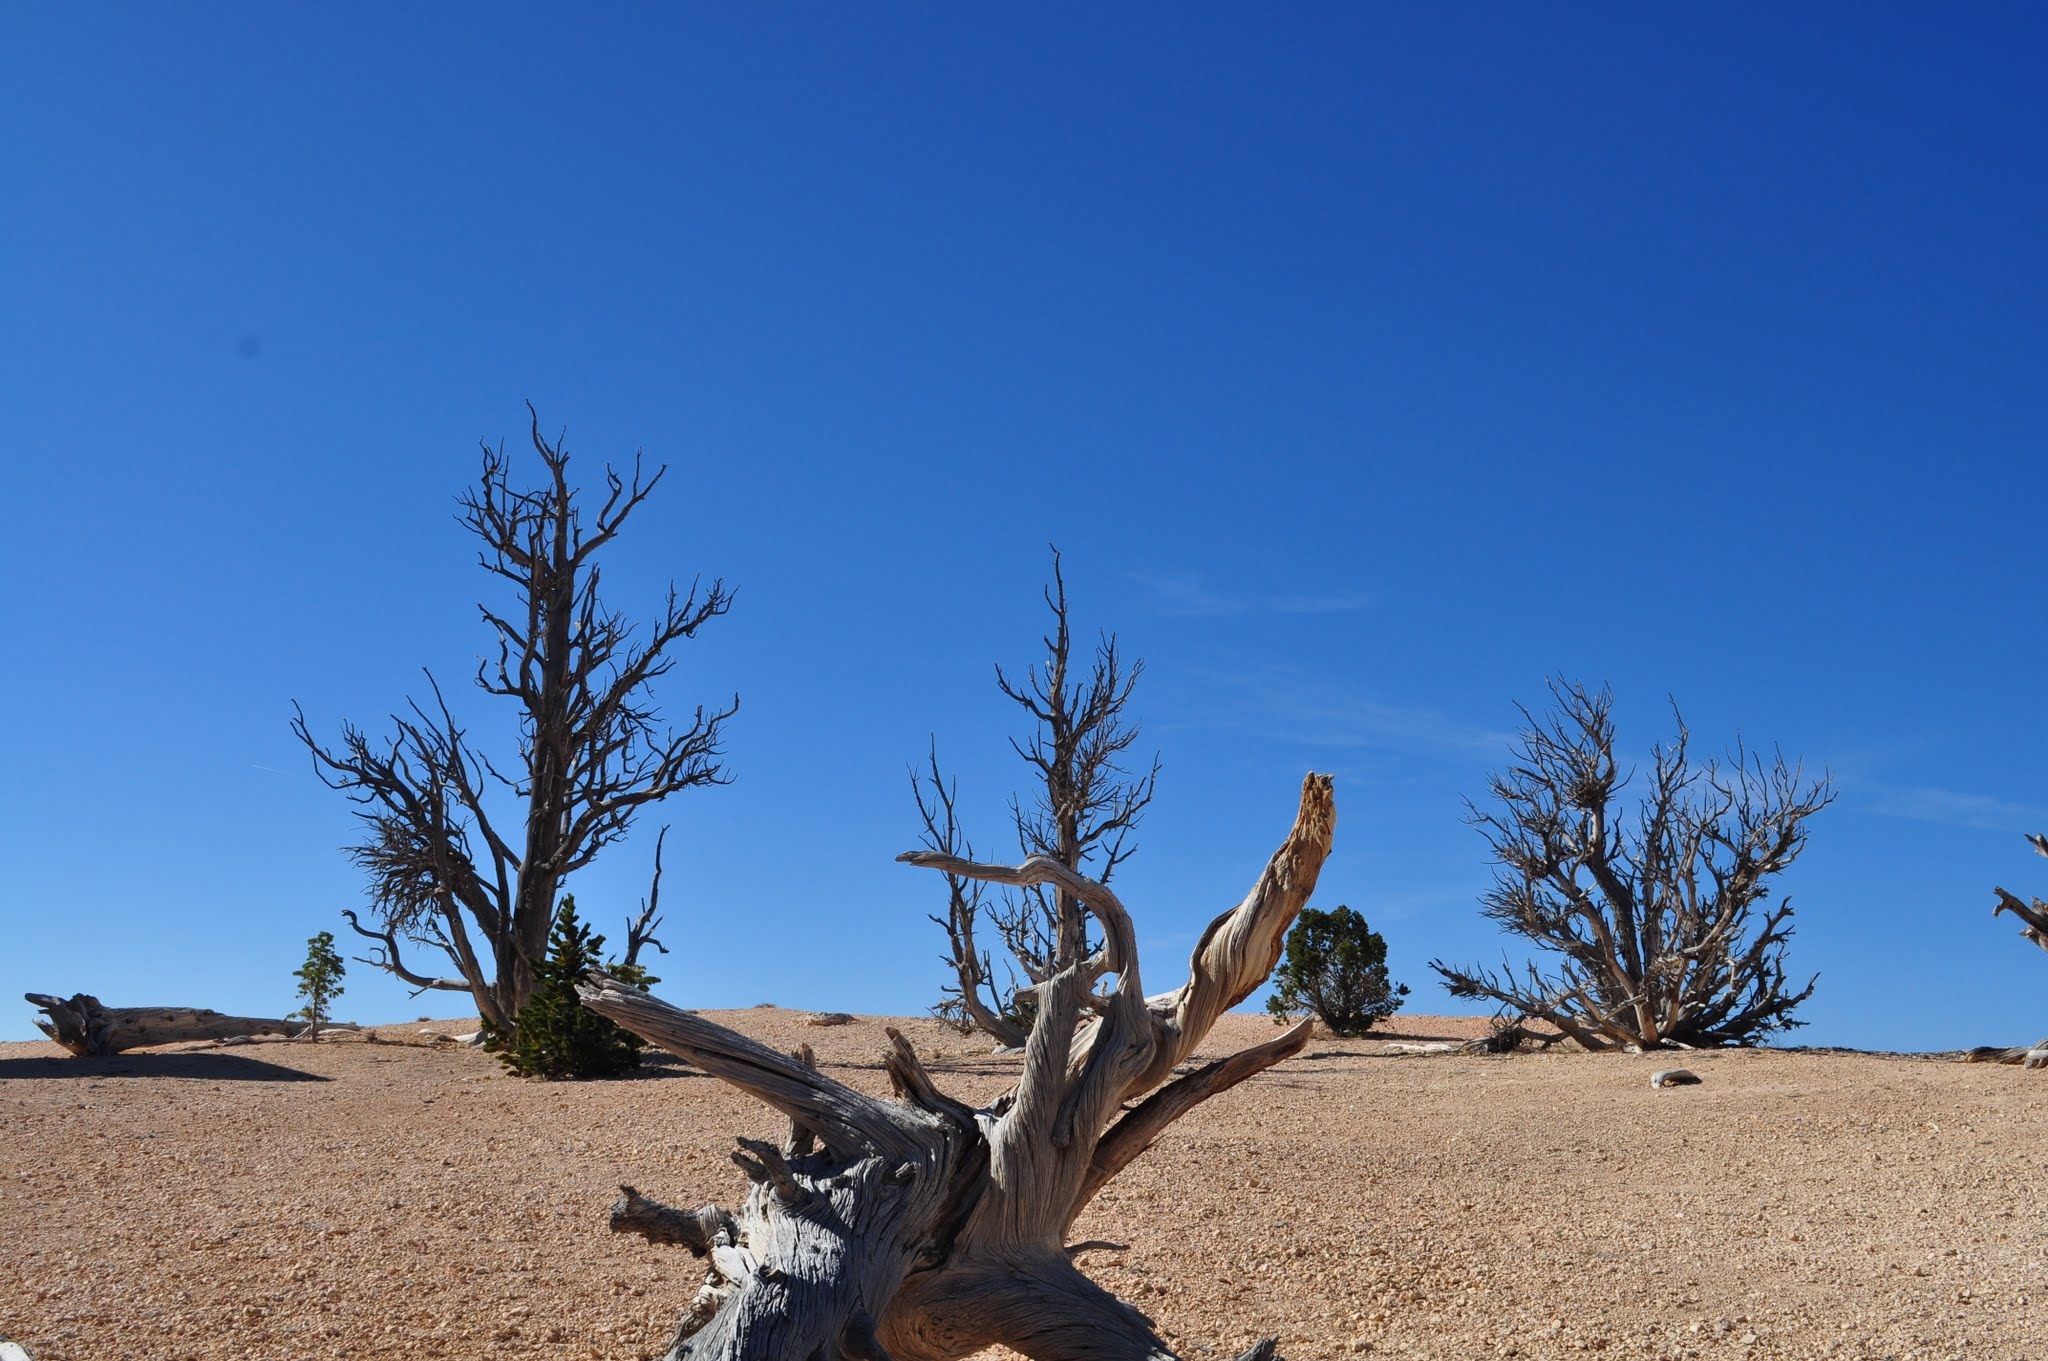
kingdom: Plantae
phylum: Tracheophyta
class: Pinopsida
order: Pinales
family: Pinaceae
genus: Pinus
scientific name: Pinus longaeva
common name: Intermountain bristlecone pine
